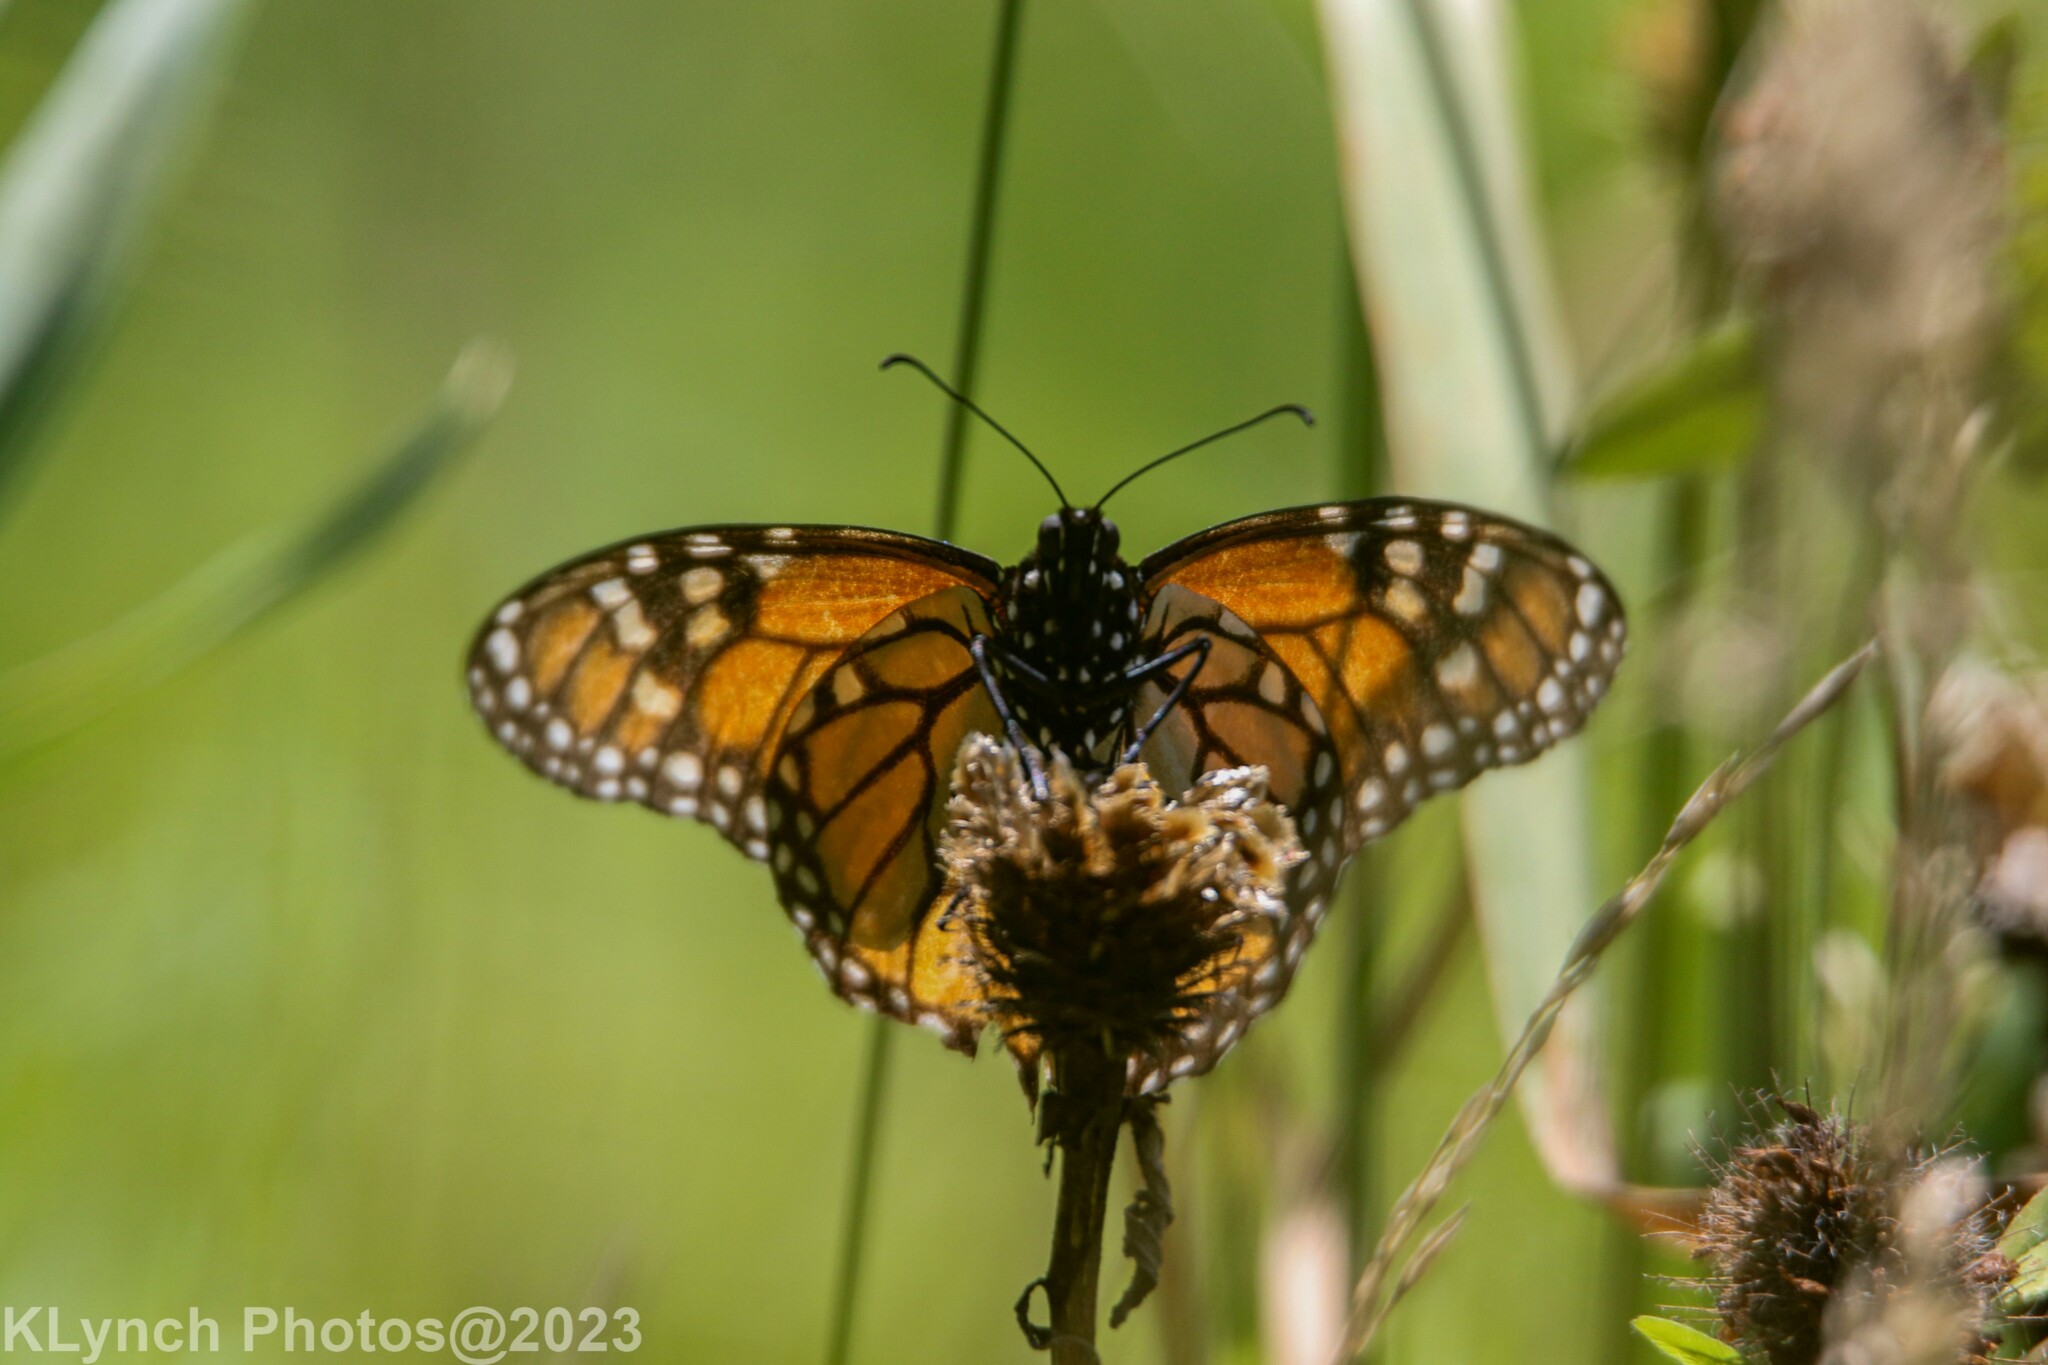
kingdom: Animalia
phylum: Arthropoda
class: Insecta
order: Lepidoptera
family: Nymphalidae
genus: Danaus
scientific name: Danaus plexippus
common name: Monarch
